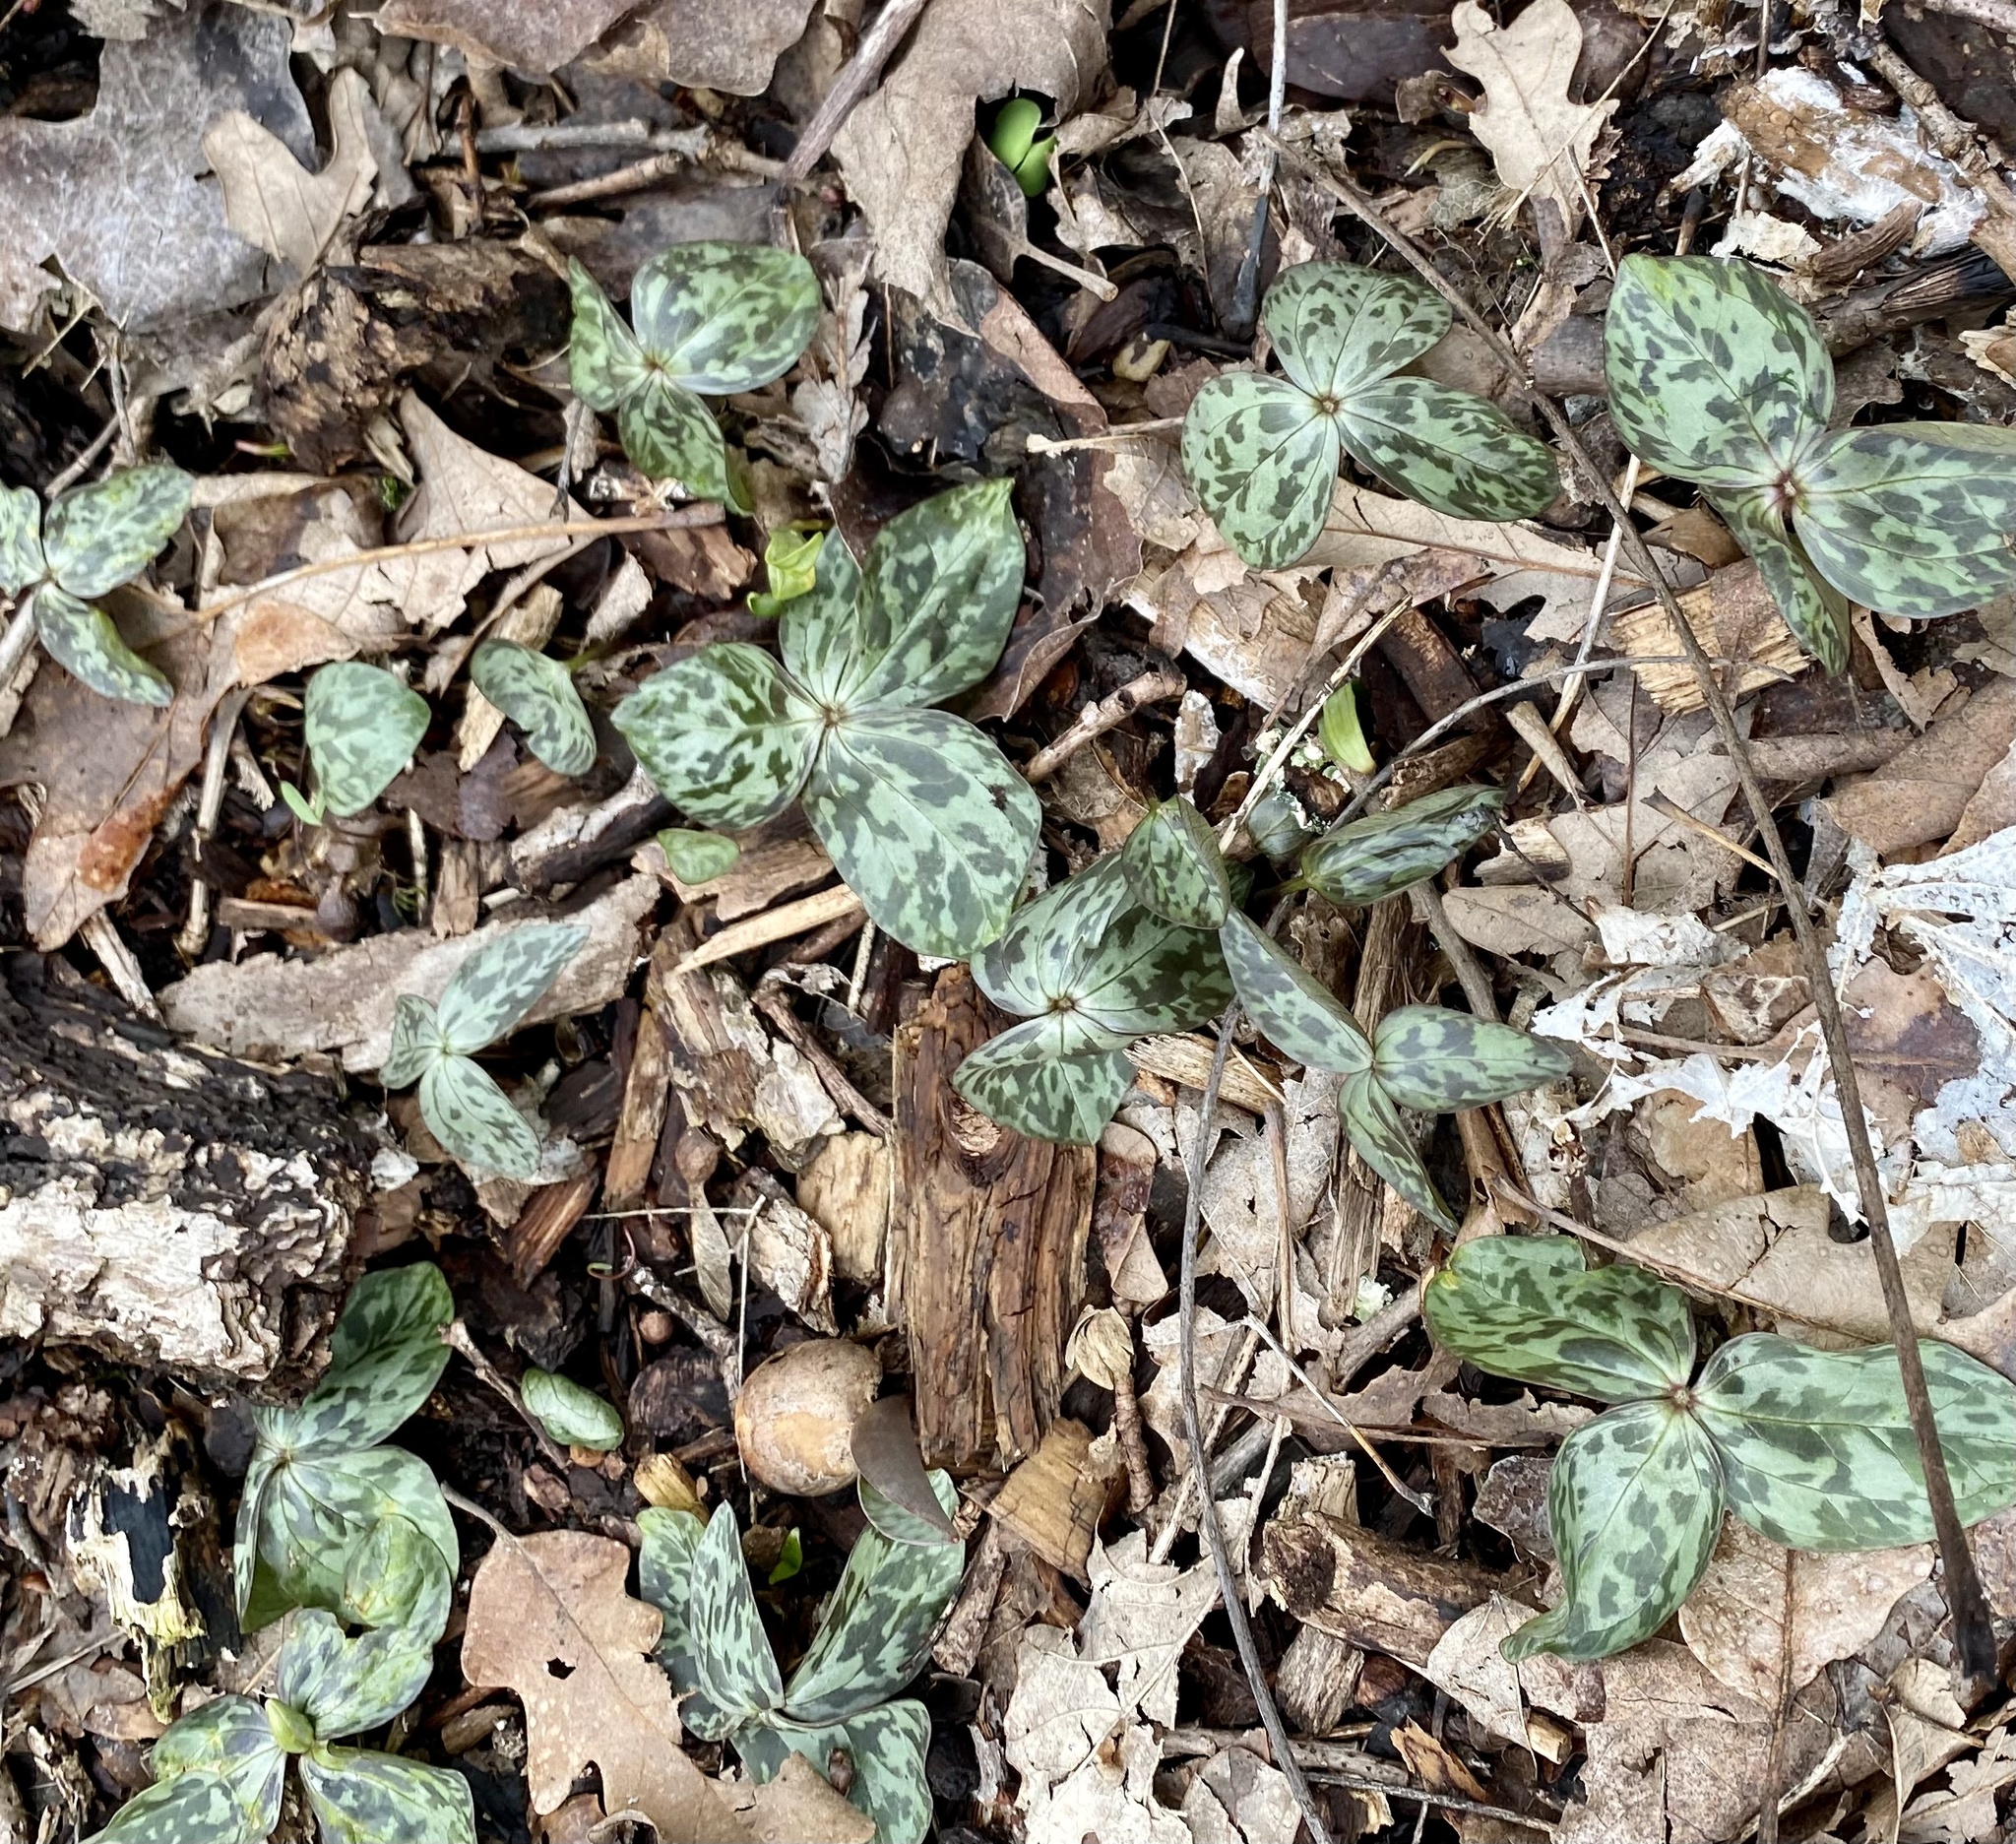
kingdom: Plantae
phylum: Tracheophyta
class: Liliopsida
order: Liliales
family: Melanthiaceae
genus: Trillium
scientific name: Trillium recurvatum
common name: Bloody butcher
